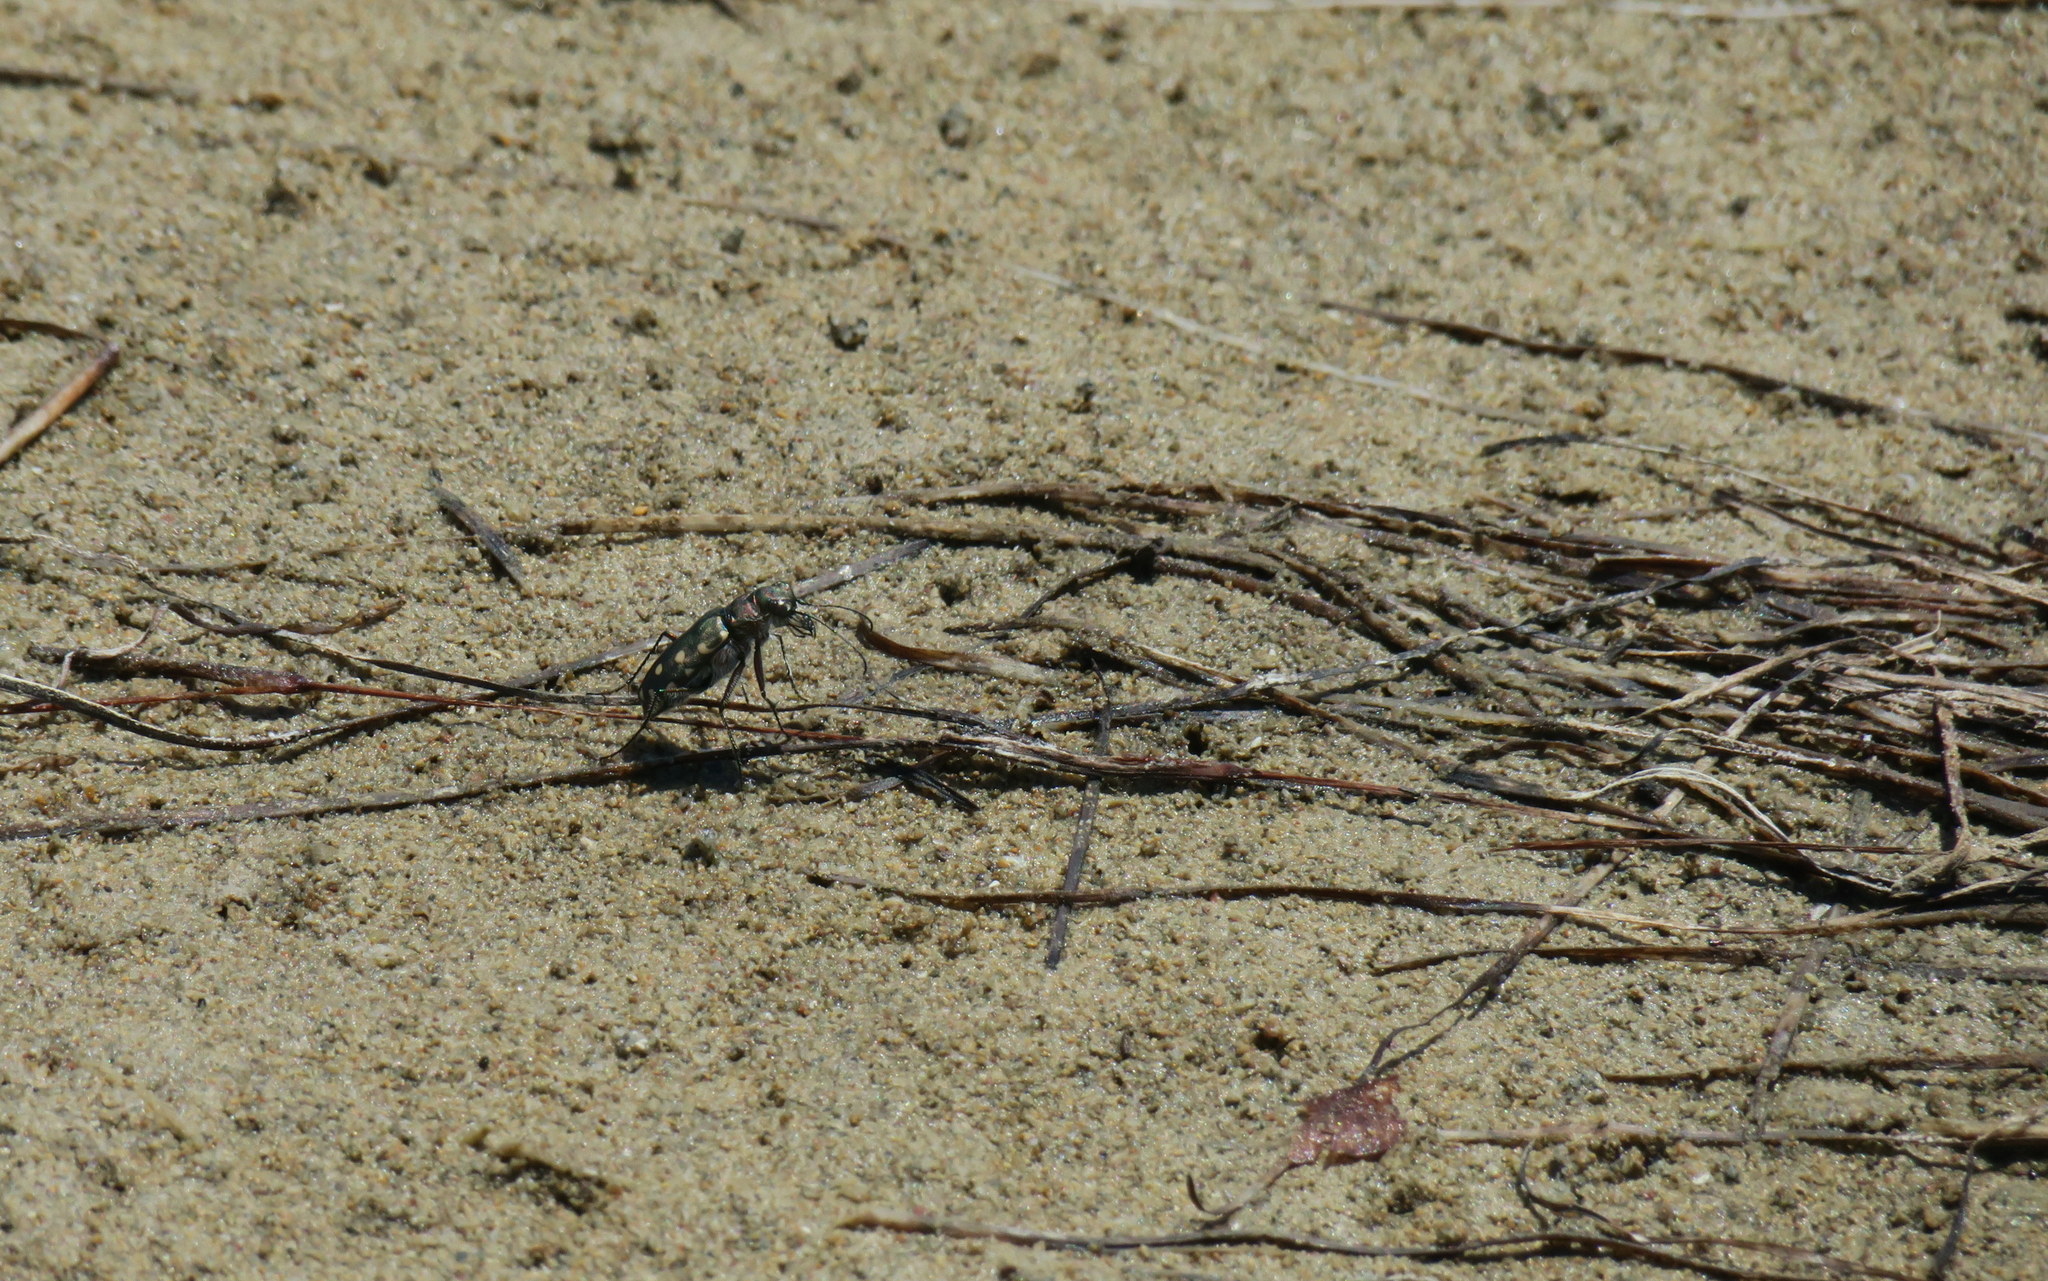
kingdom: Animalia
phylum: Arthropoda
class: Insecta
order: Coleoptera
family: Carabidae
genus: Cicindela
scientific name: Cicindela littoralis
